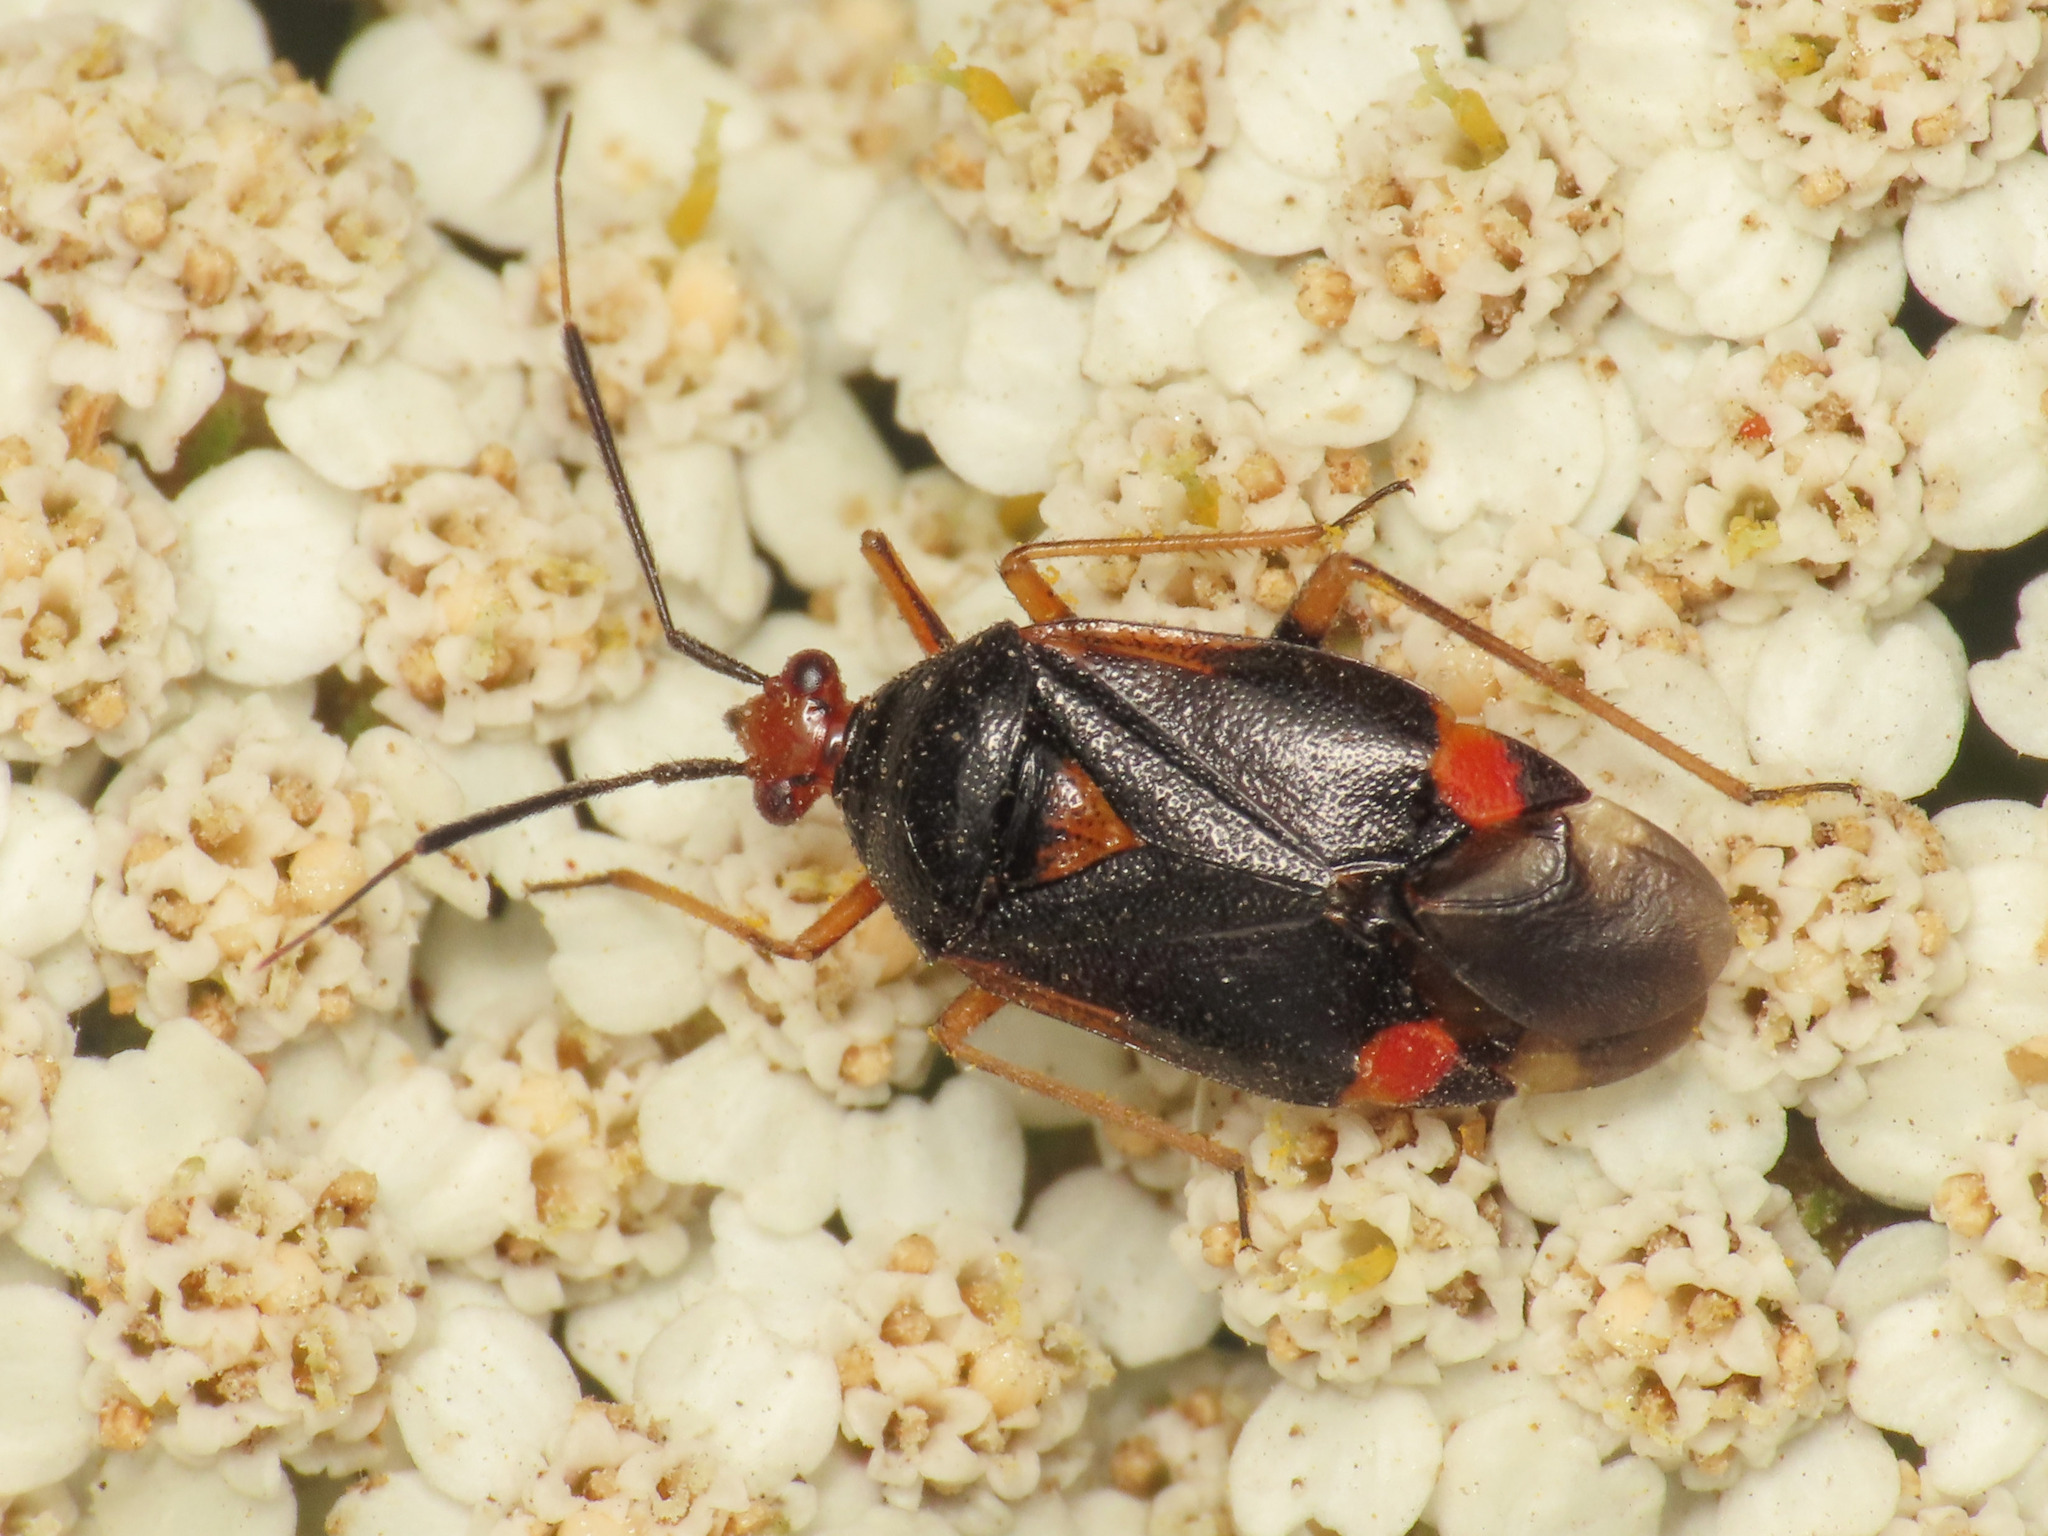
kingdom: Animalia
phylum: Arthropoda
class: Insecta
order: Hemiptera
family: Miridae
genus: Deraeocoris
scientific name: Deraeocoris ruber
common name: Plant bug
